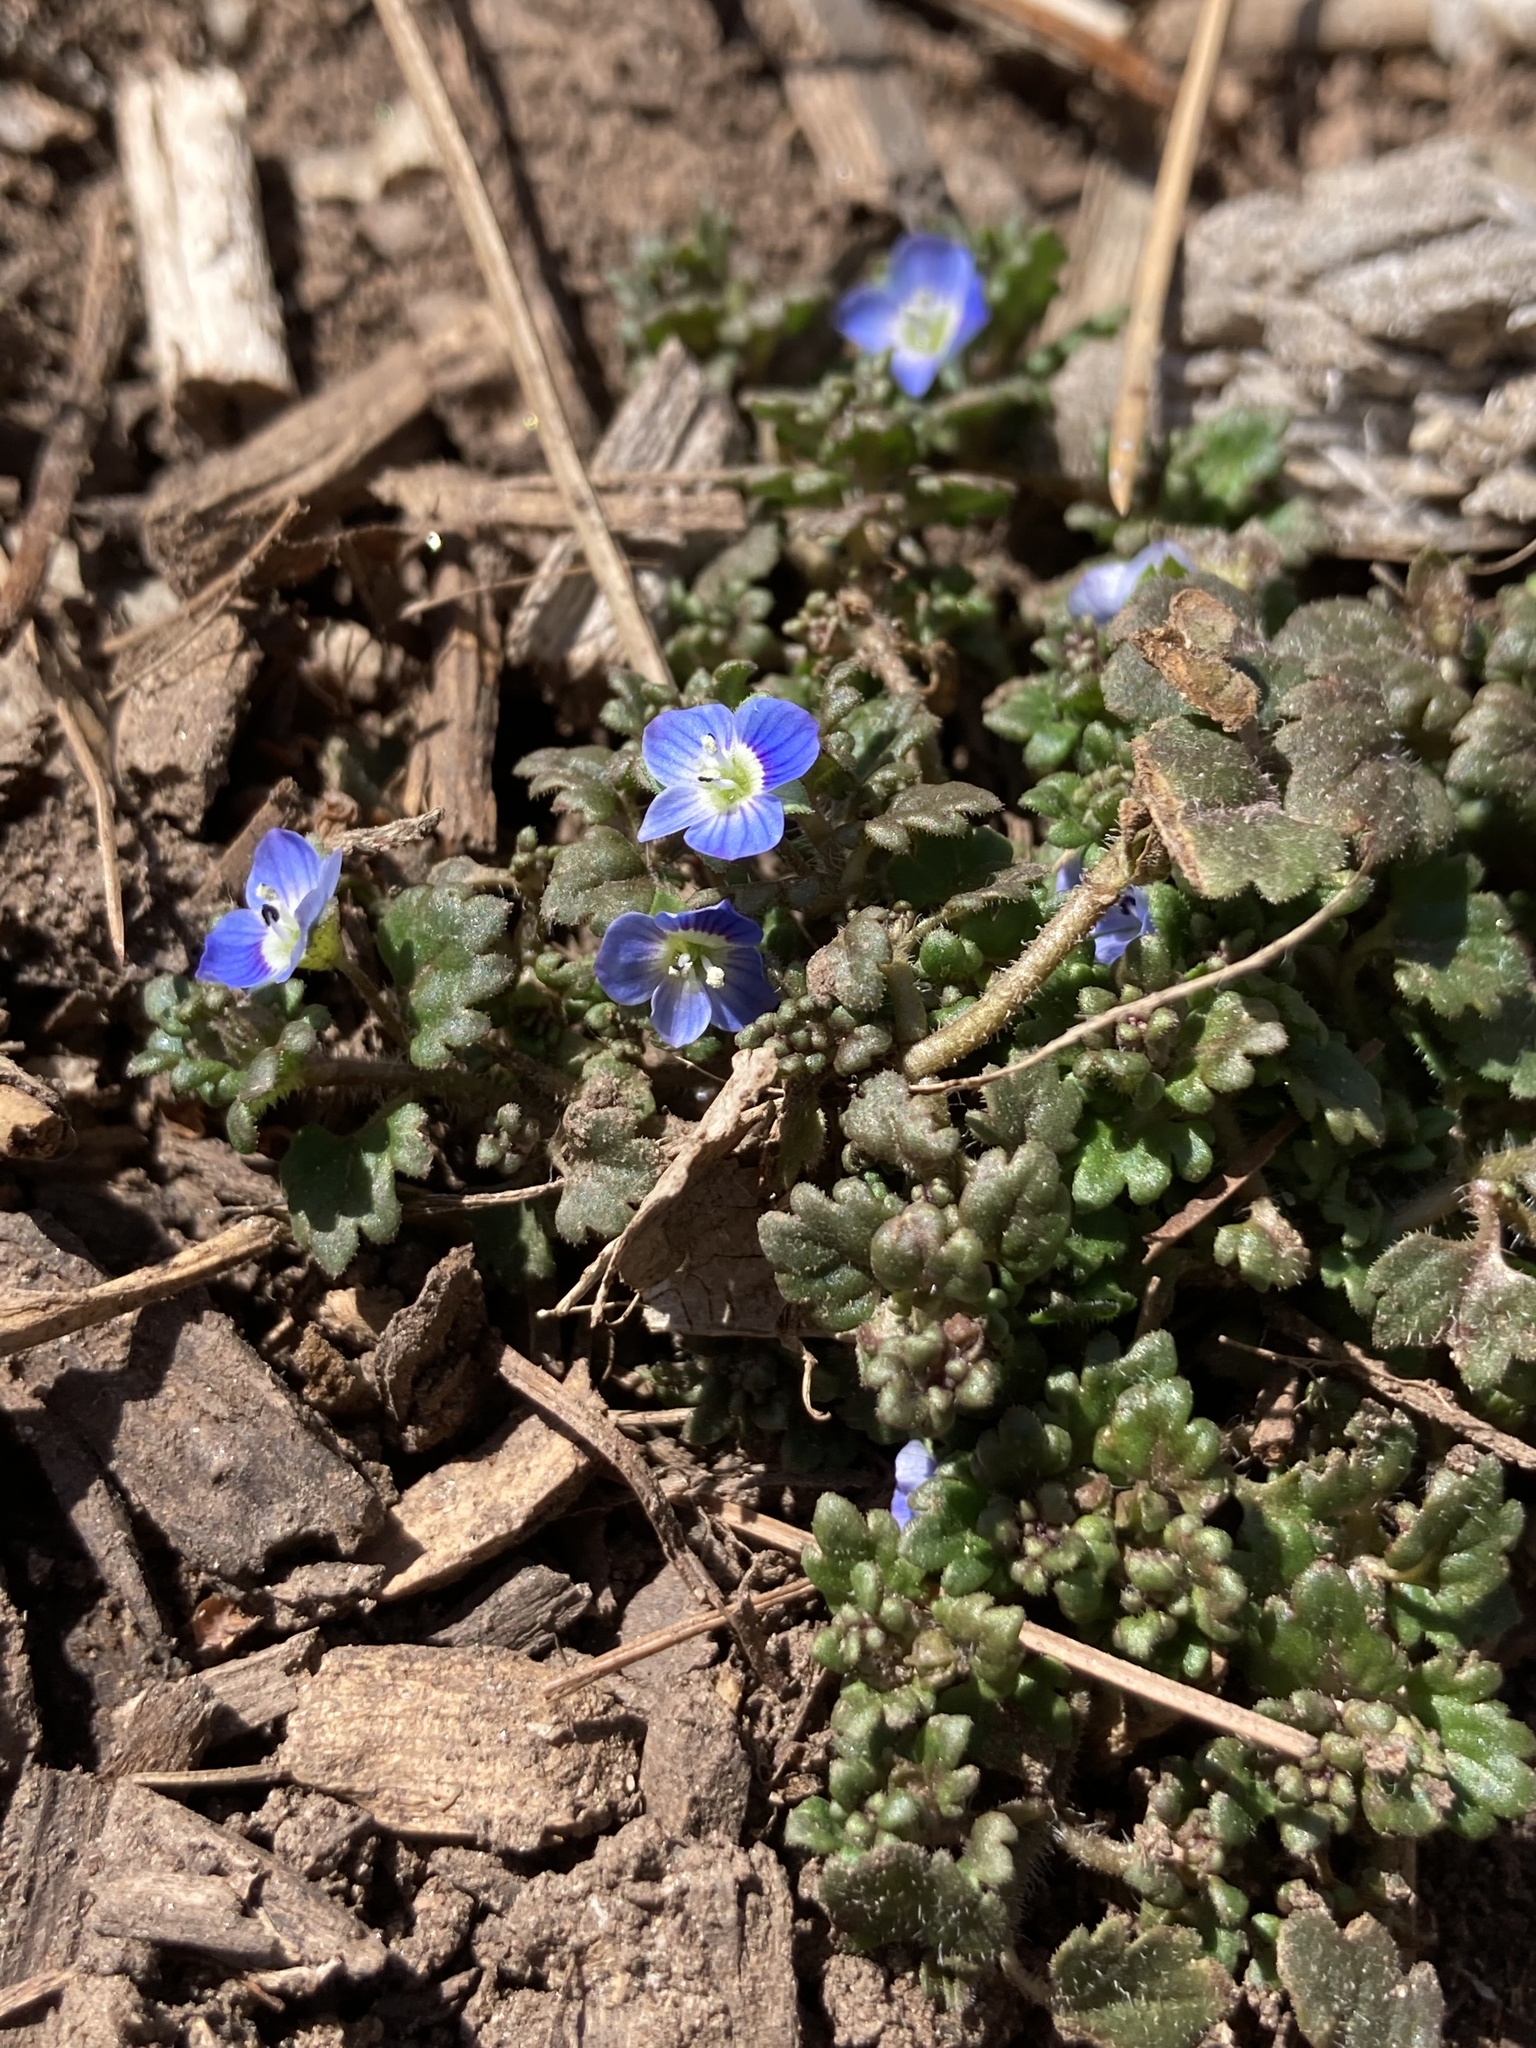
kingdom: Plantae
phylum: Tracheophyta
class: Magnoliopsida
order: Lamiales
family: Plantaginaceae
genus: Veronica
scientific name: Veronica polita
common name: Grey field-speedwell
